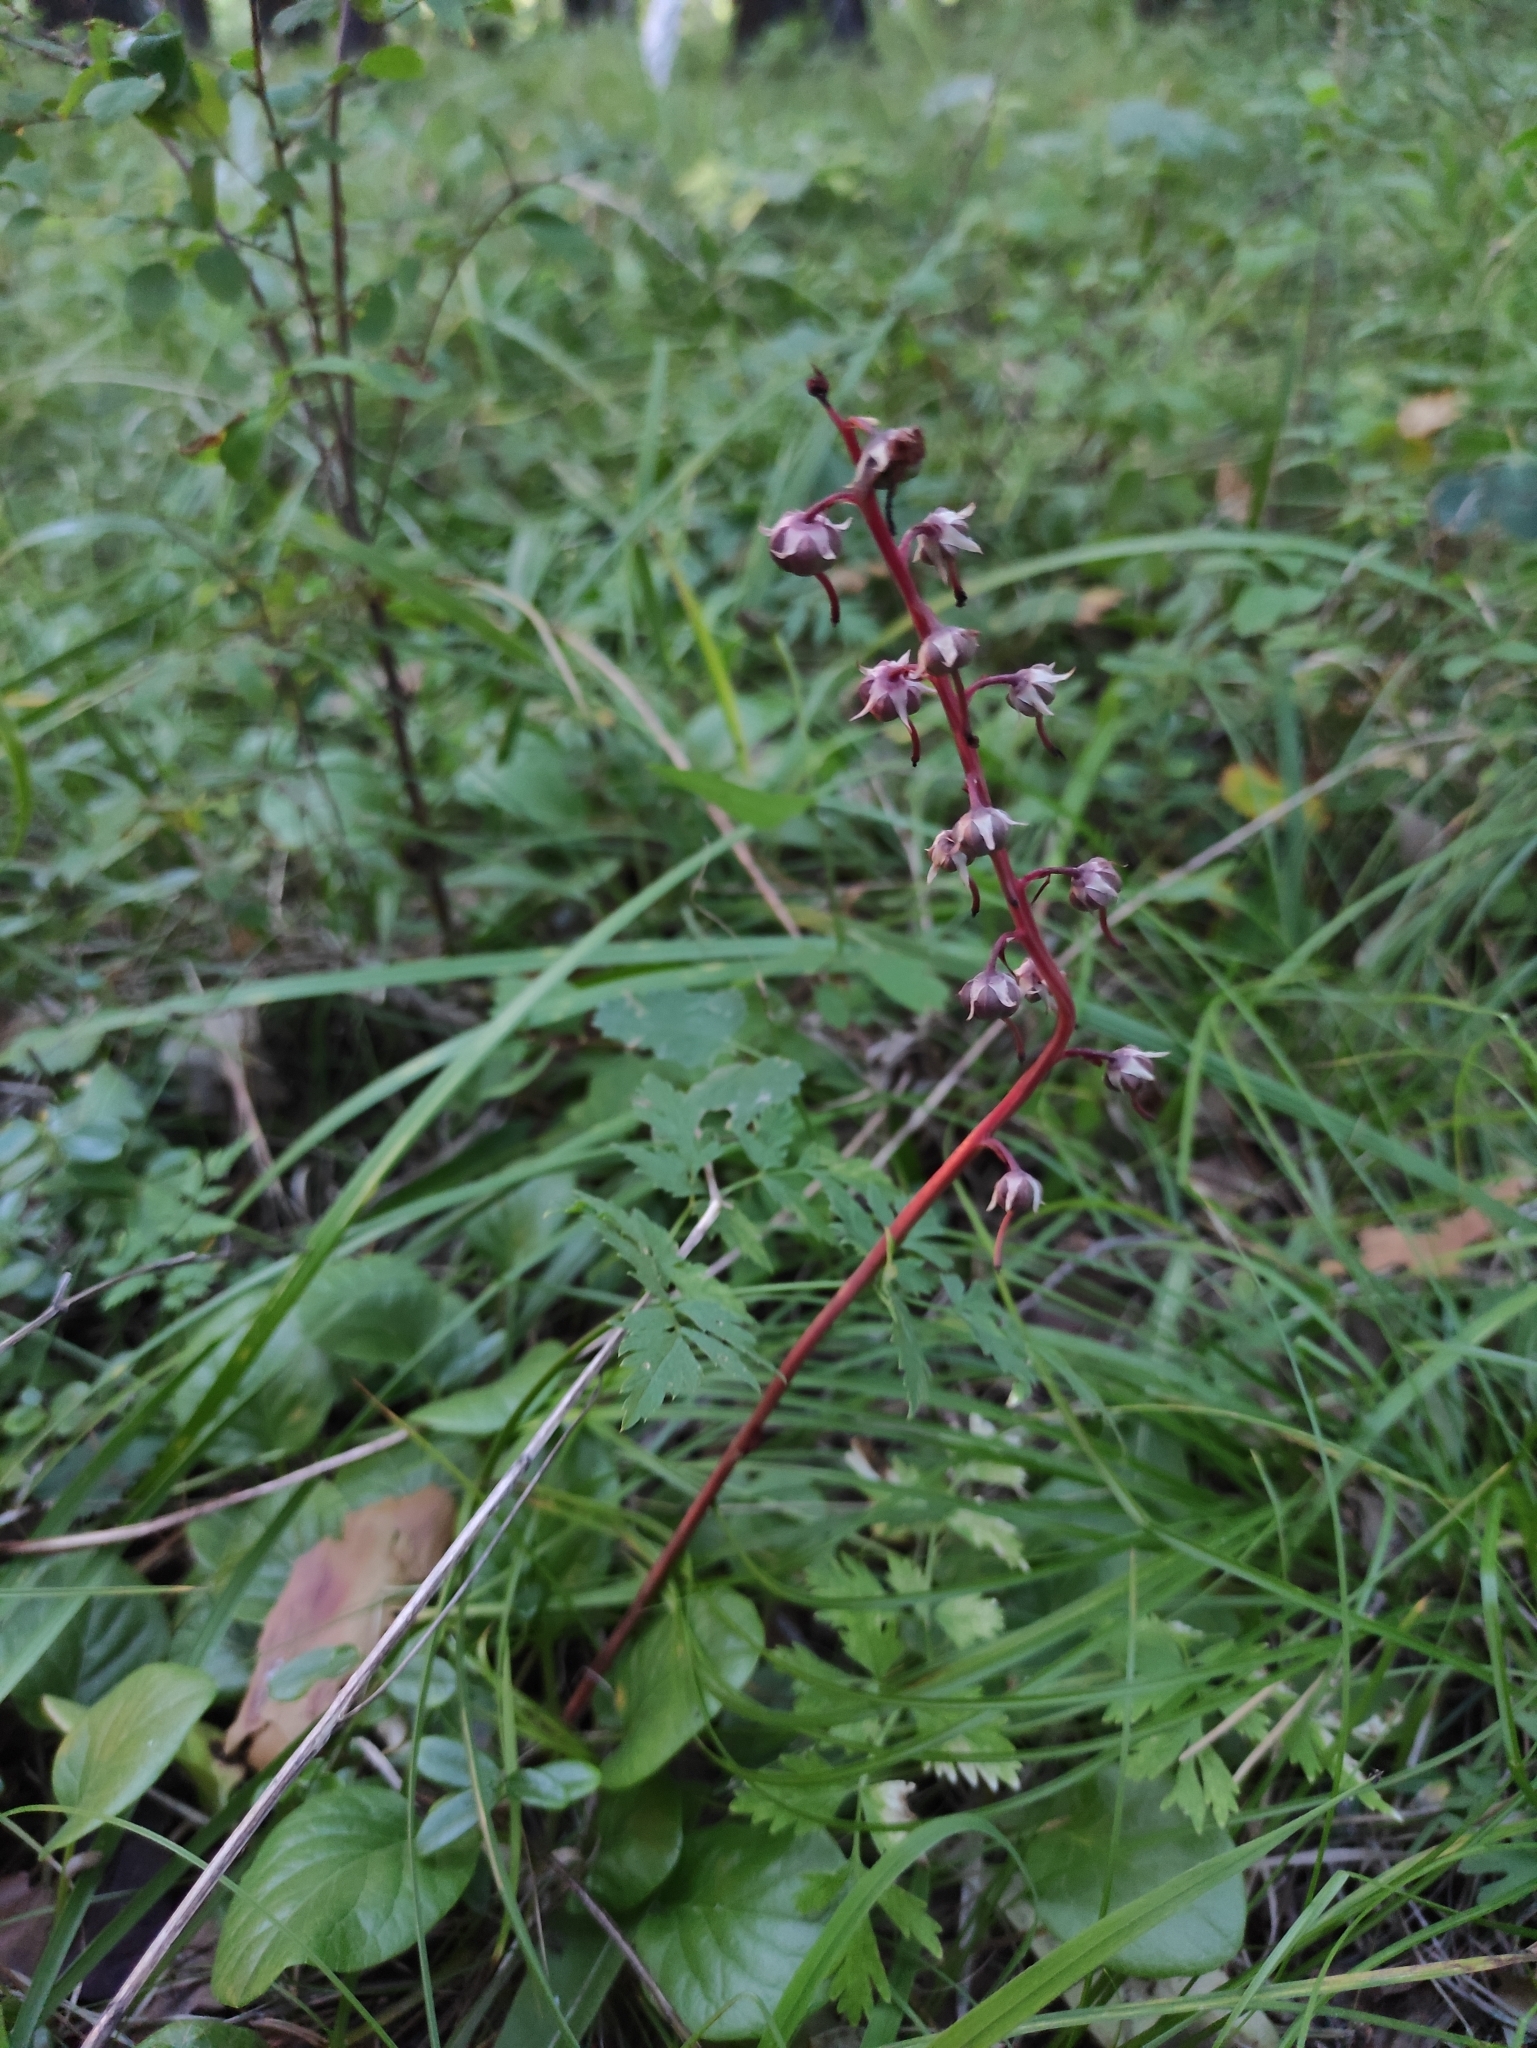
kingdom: Plantae
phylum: Tracheophyta
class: Magnoliopsida
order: Ericales
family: Ericaceae
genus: Pyrola
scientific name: Pyrola asarifolia
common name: Bog wintergreen
